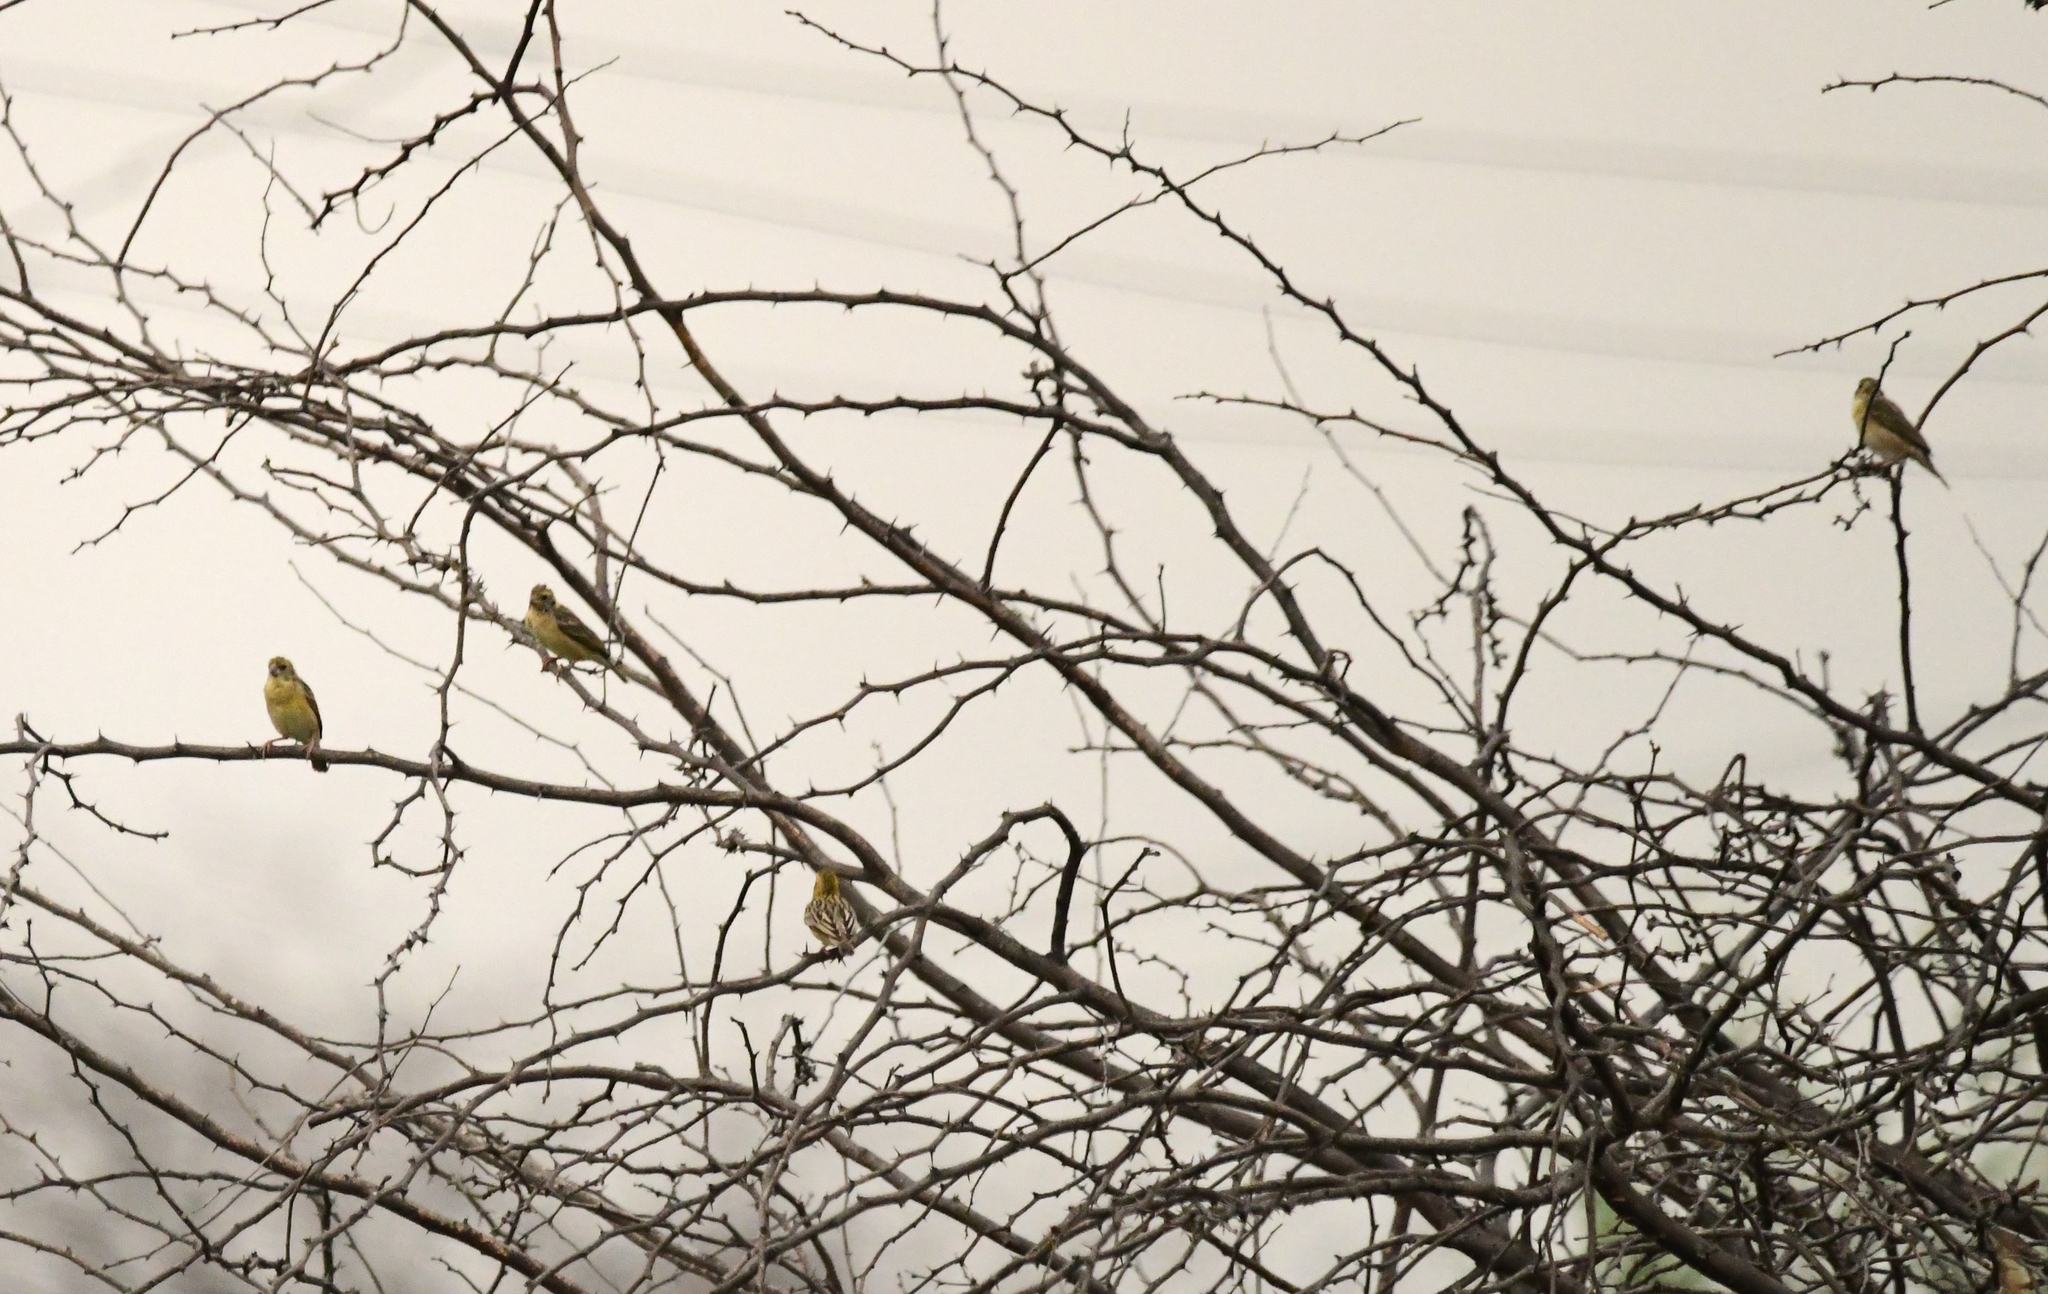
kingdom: Animalia
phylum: Chordata
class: Aves
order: Passeriformes
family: Ploceidae
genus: Ploceus
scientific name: Ploceus philippinus
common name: Baya weaver
